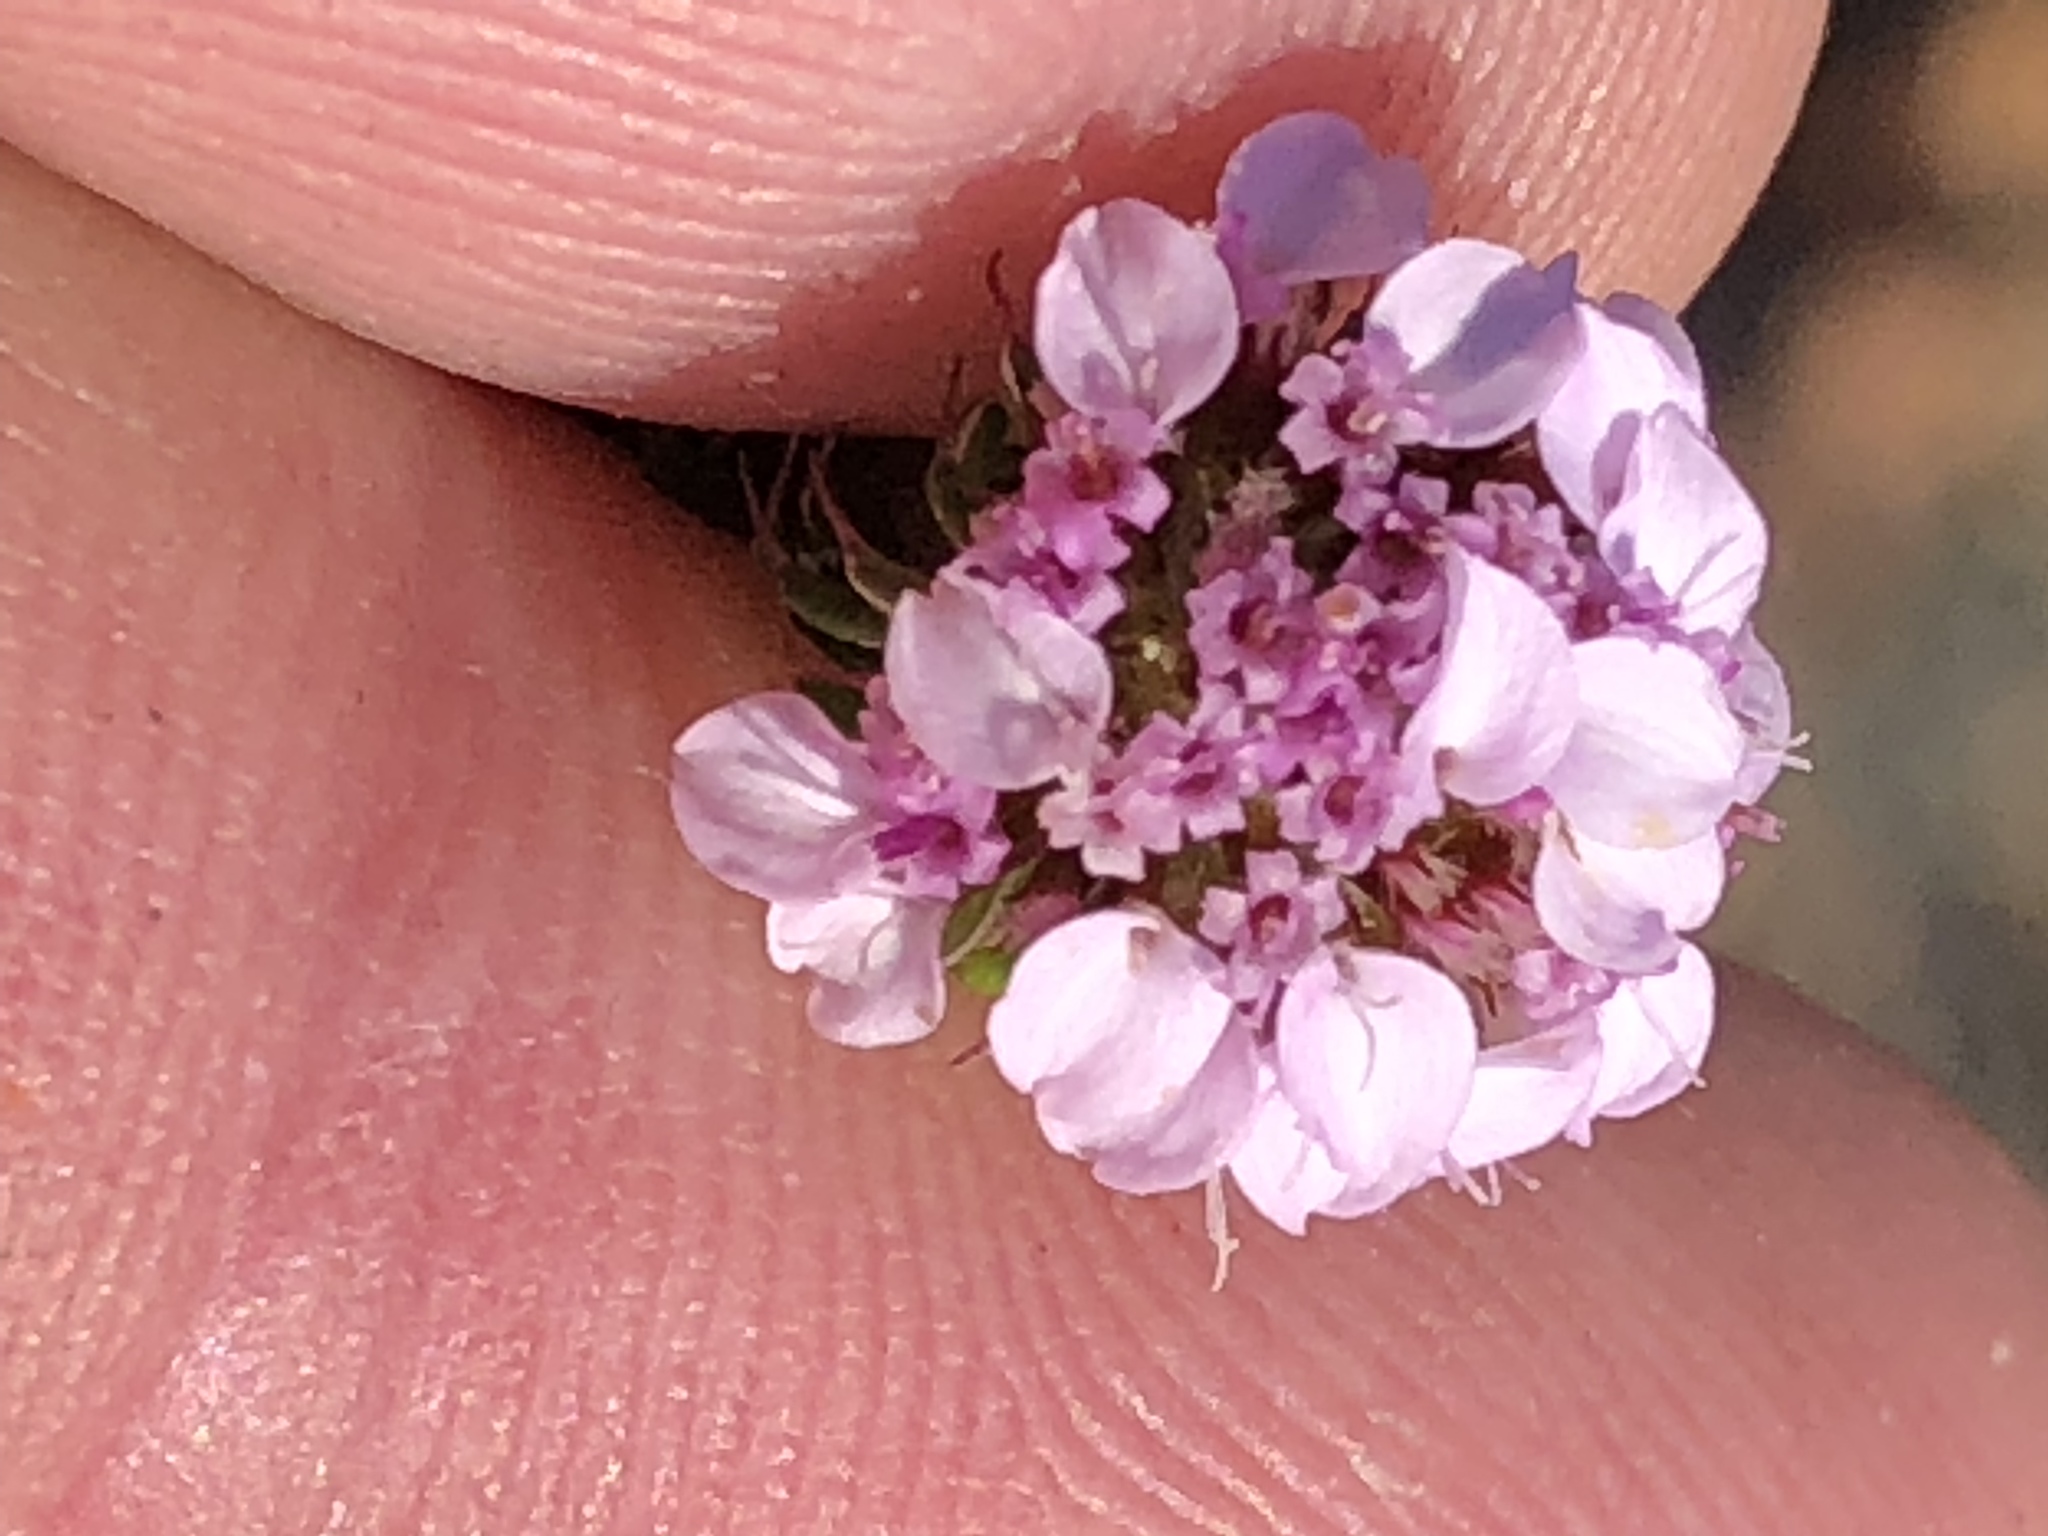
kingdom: Plantae
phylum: Tracheophyta
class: Magnoliopsida
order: Asterales
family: Asteraceae
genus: Disparago
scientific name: Disparago tortilis
